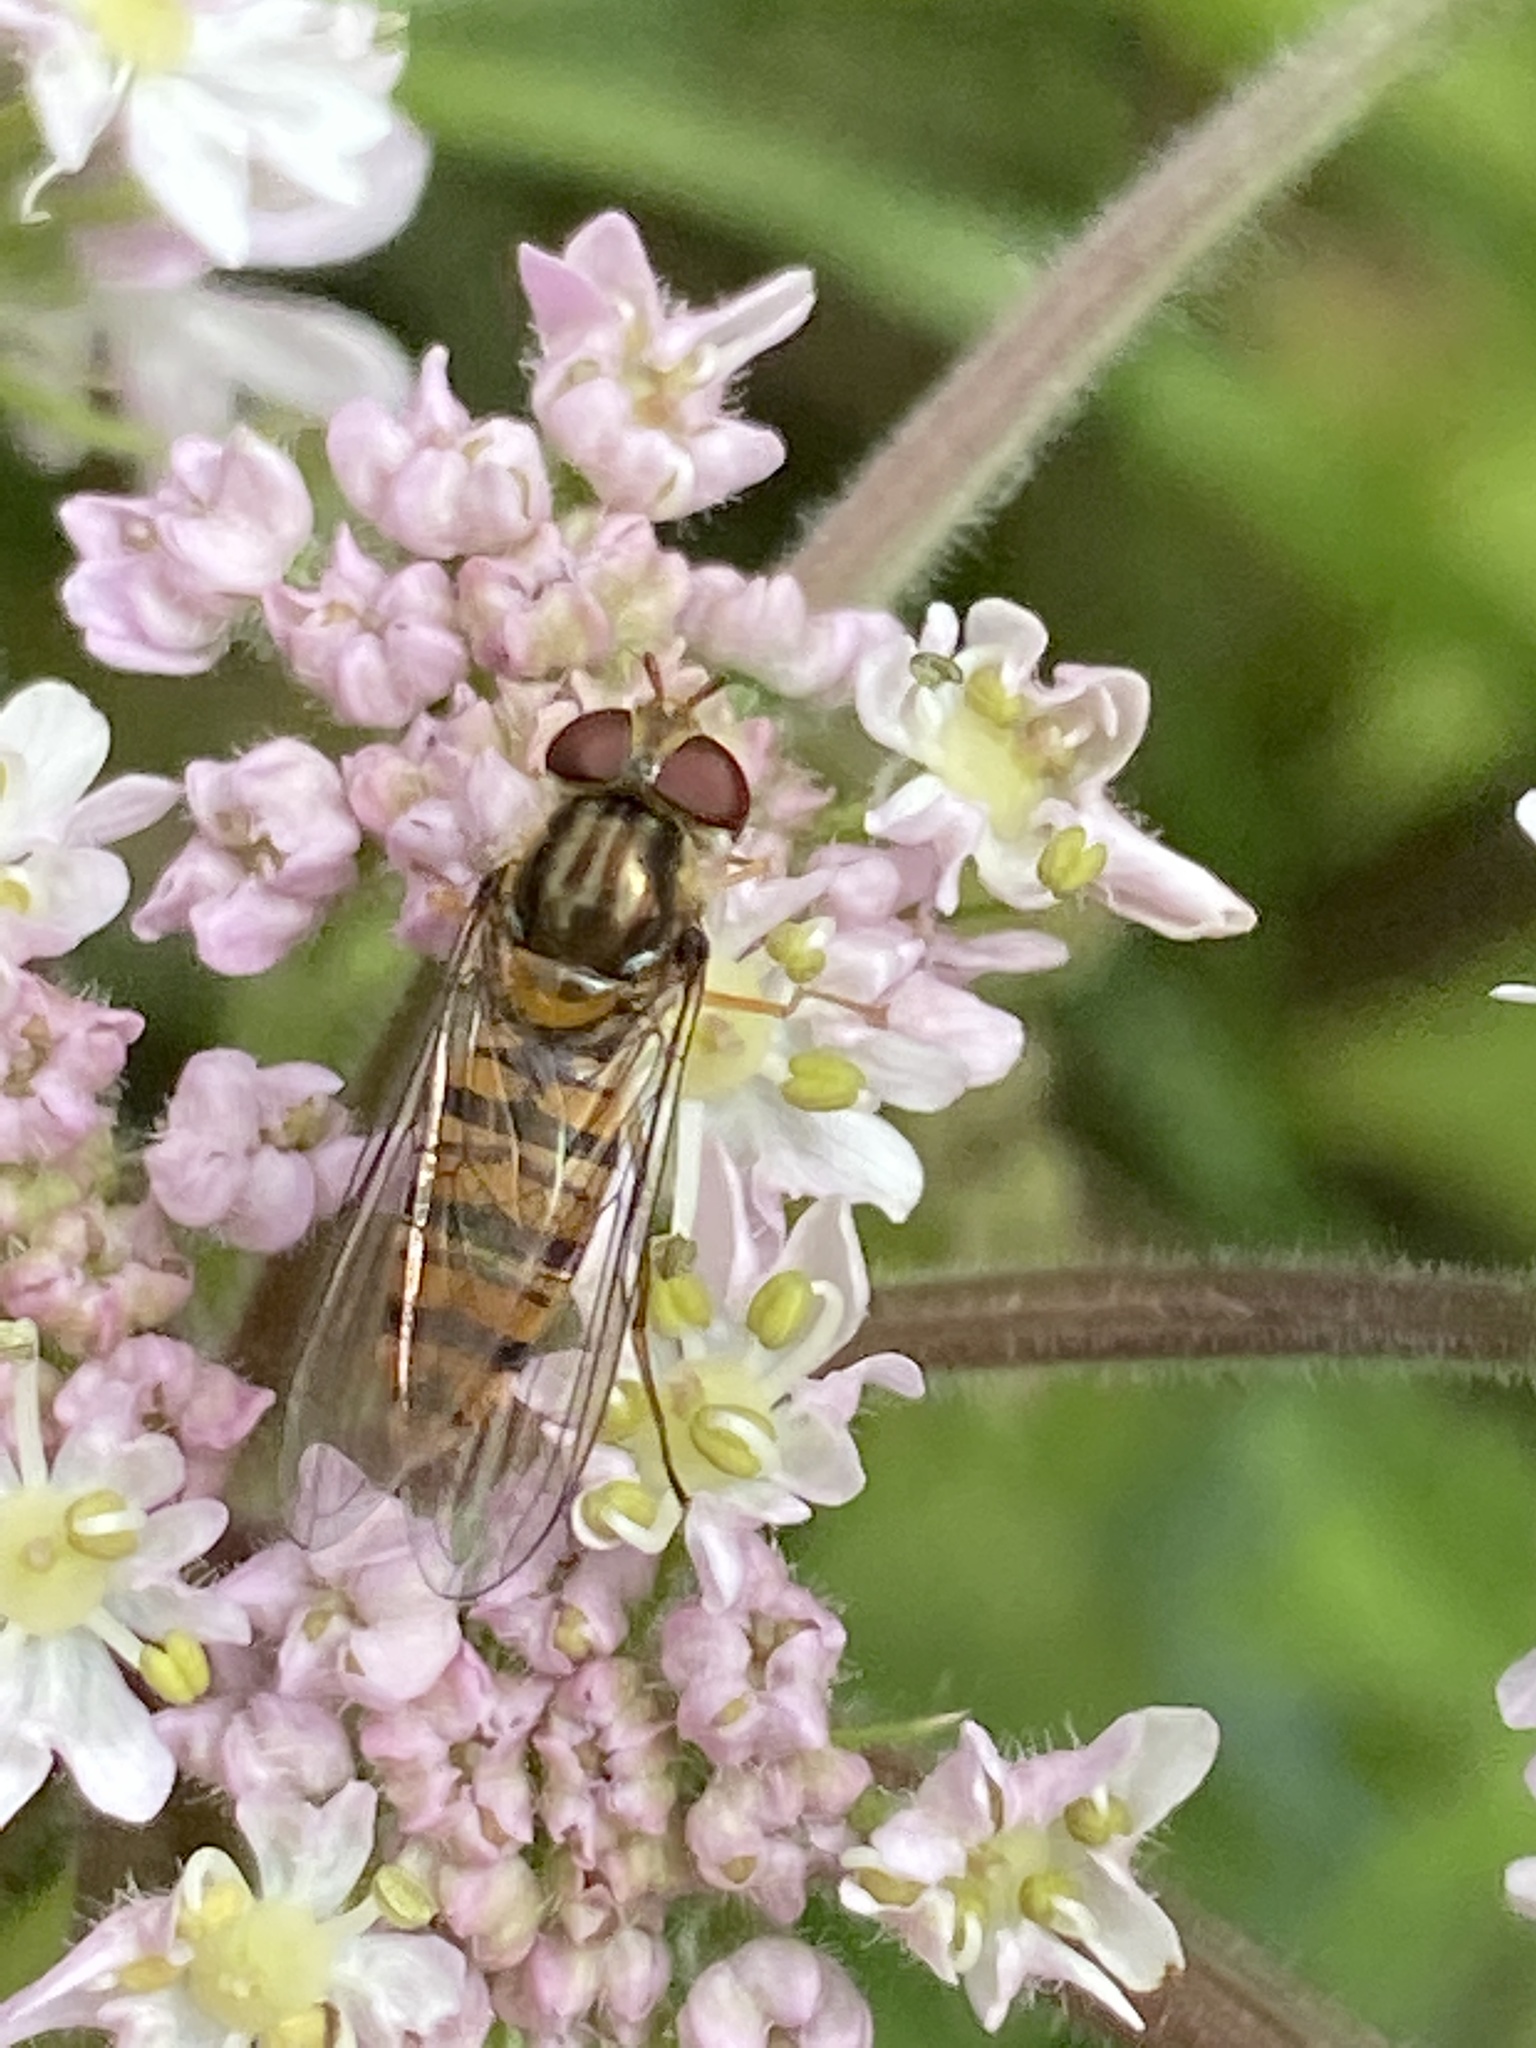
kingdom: Animalia
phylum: Arthropoda
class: Insecta
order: Diptera
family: Syrphidae
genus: Episyrphus
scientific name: Episyrphus balteatus
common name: Marmalade hoverfly
